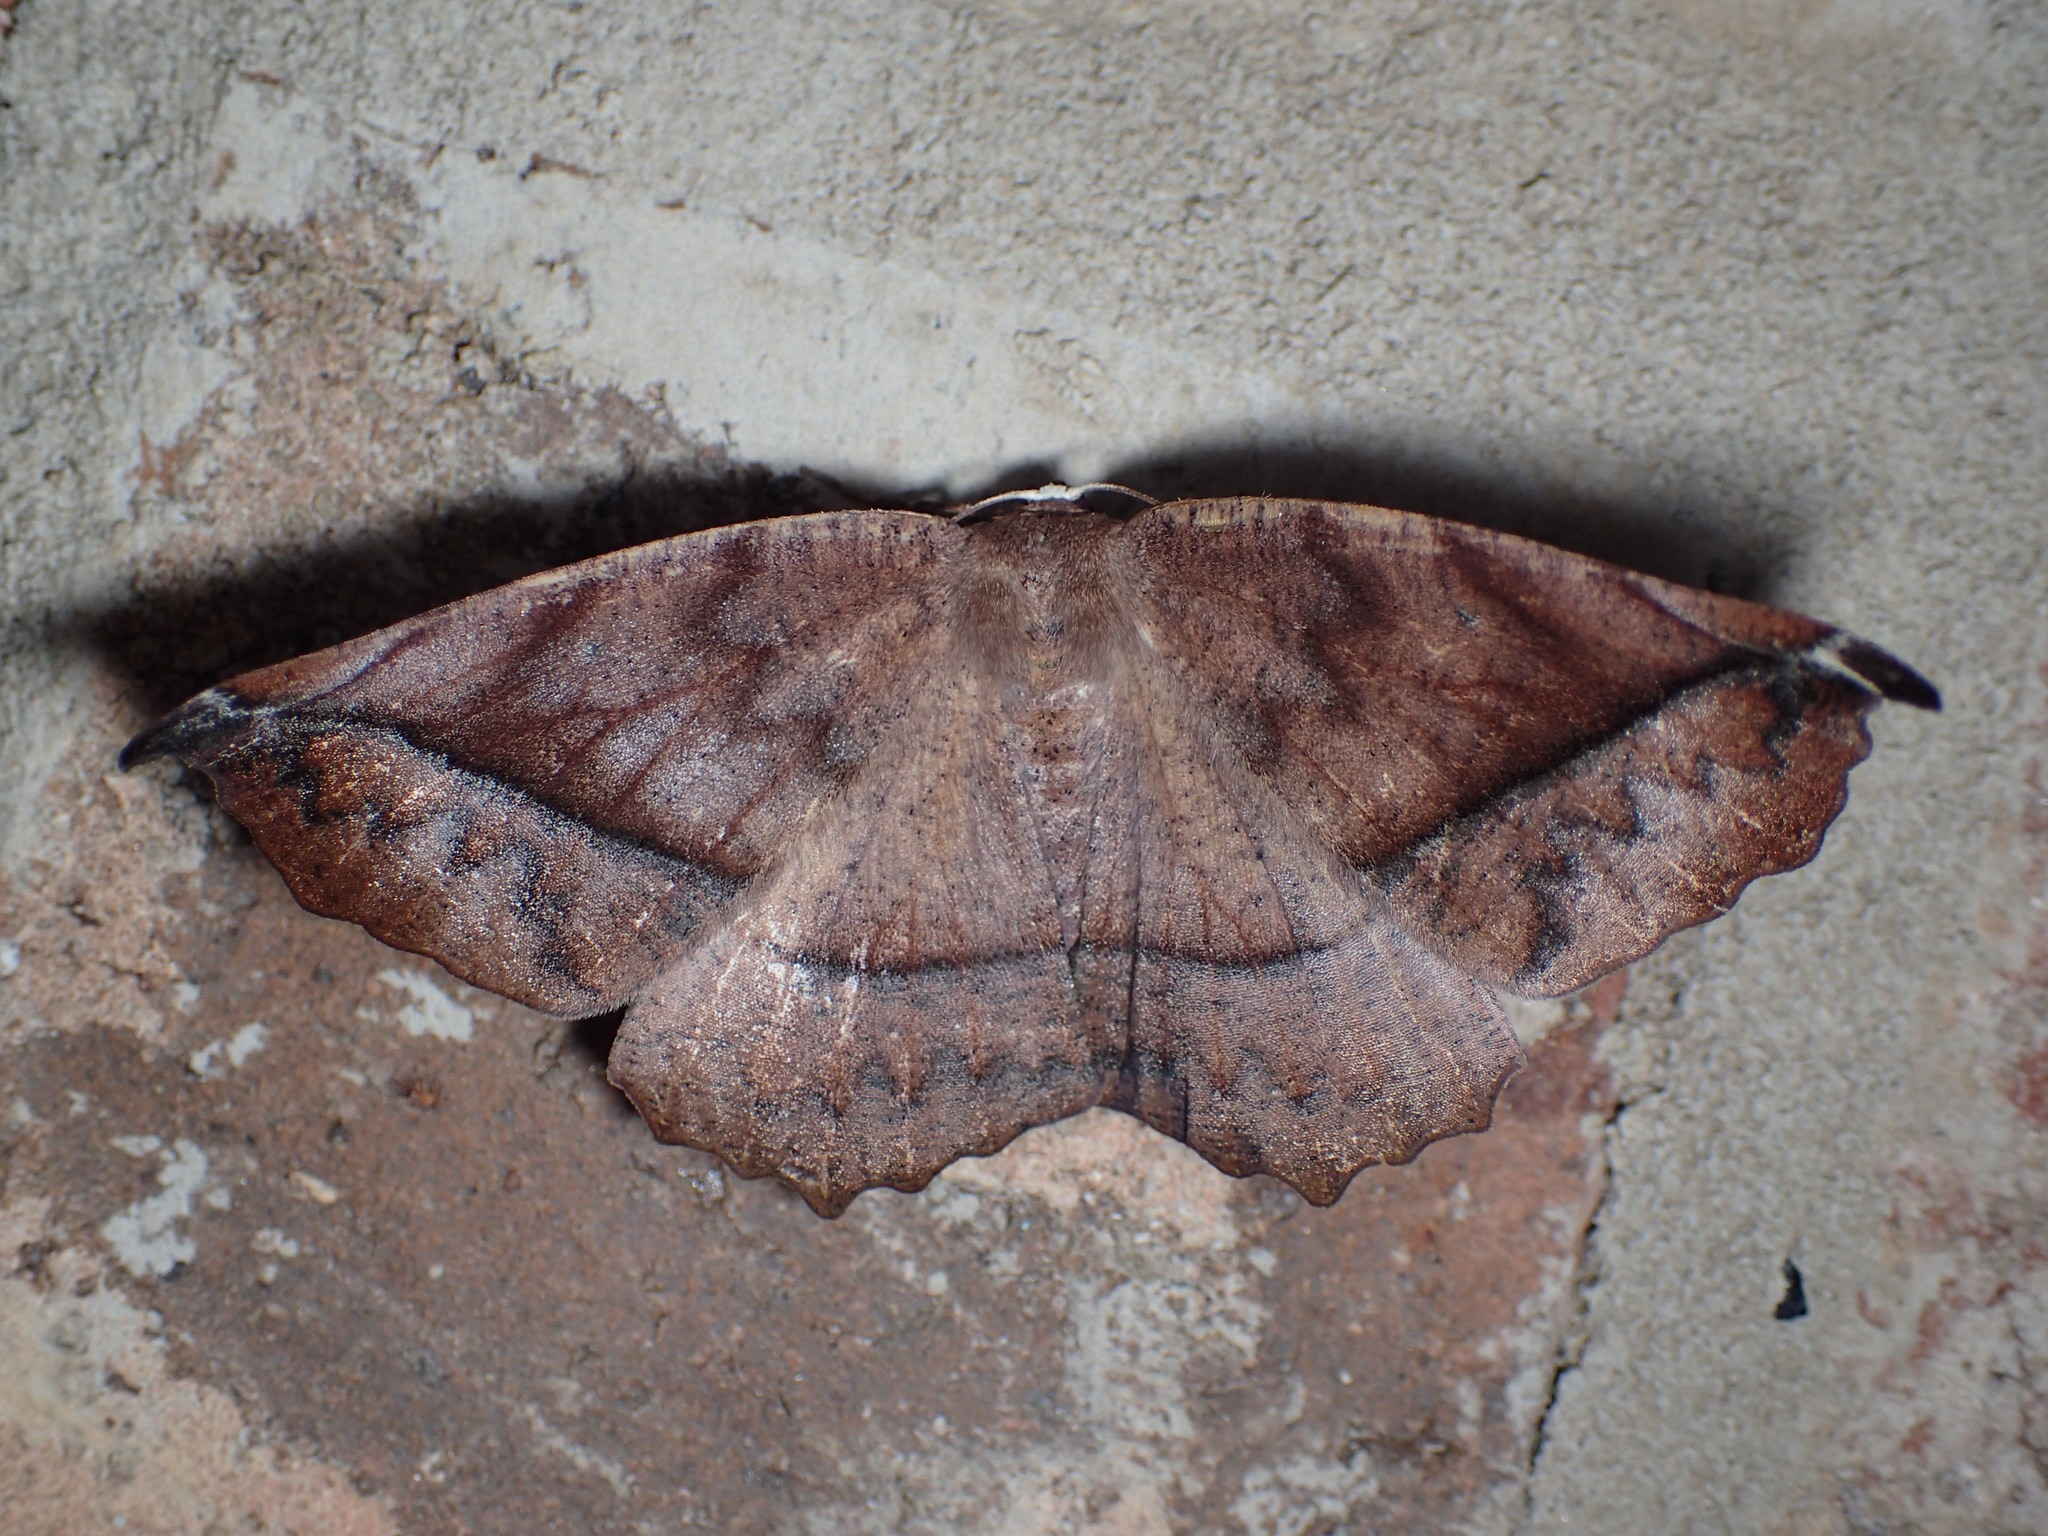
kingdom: Animalia
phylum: Arthropoda
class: Insecta
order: Lepidoptera
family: Geometridae
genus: Eutrapela
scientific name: Eutrapela clemataria
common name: Curved-toothed geometer
